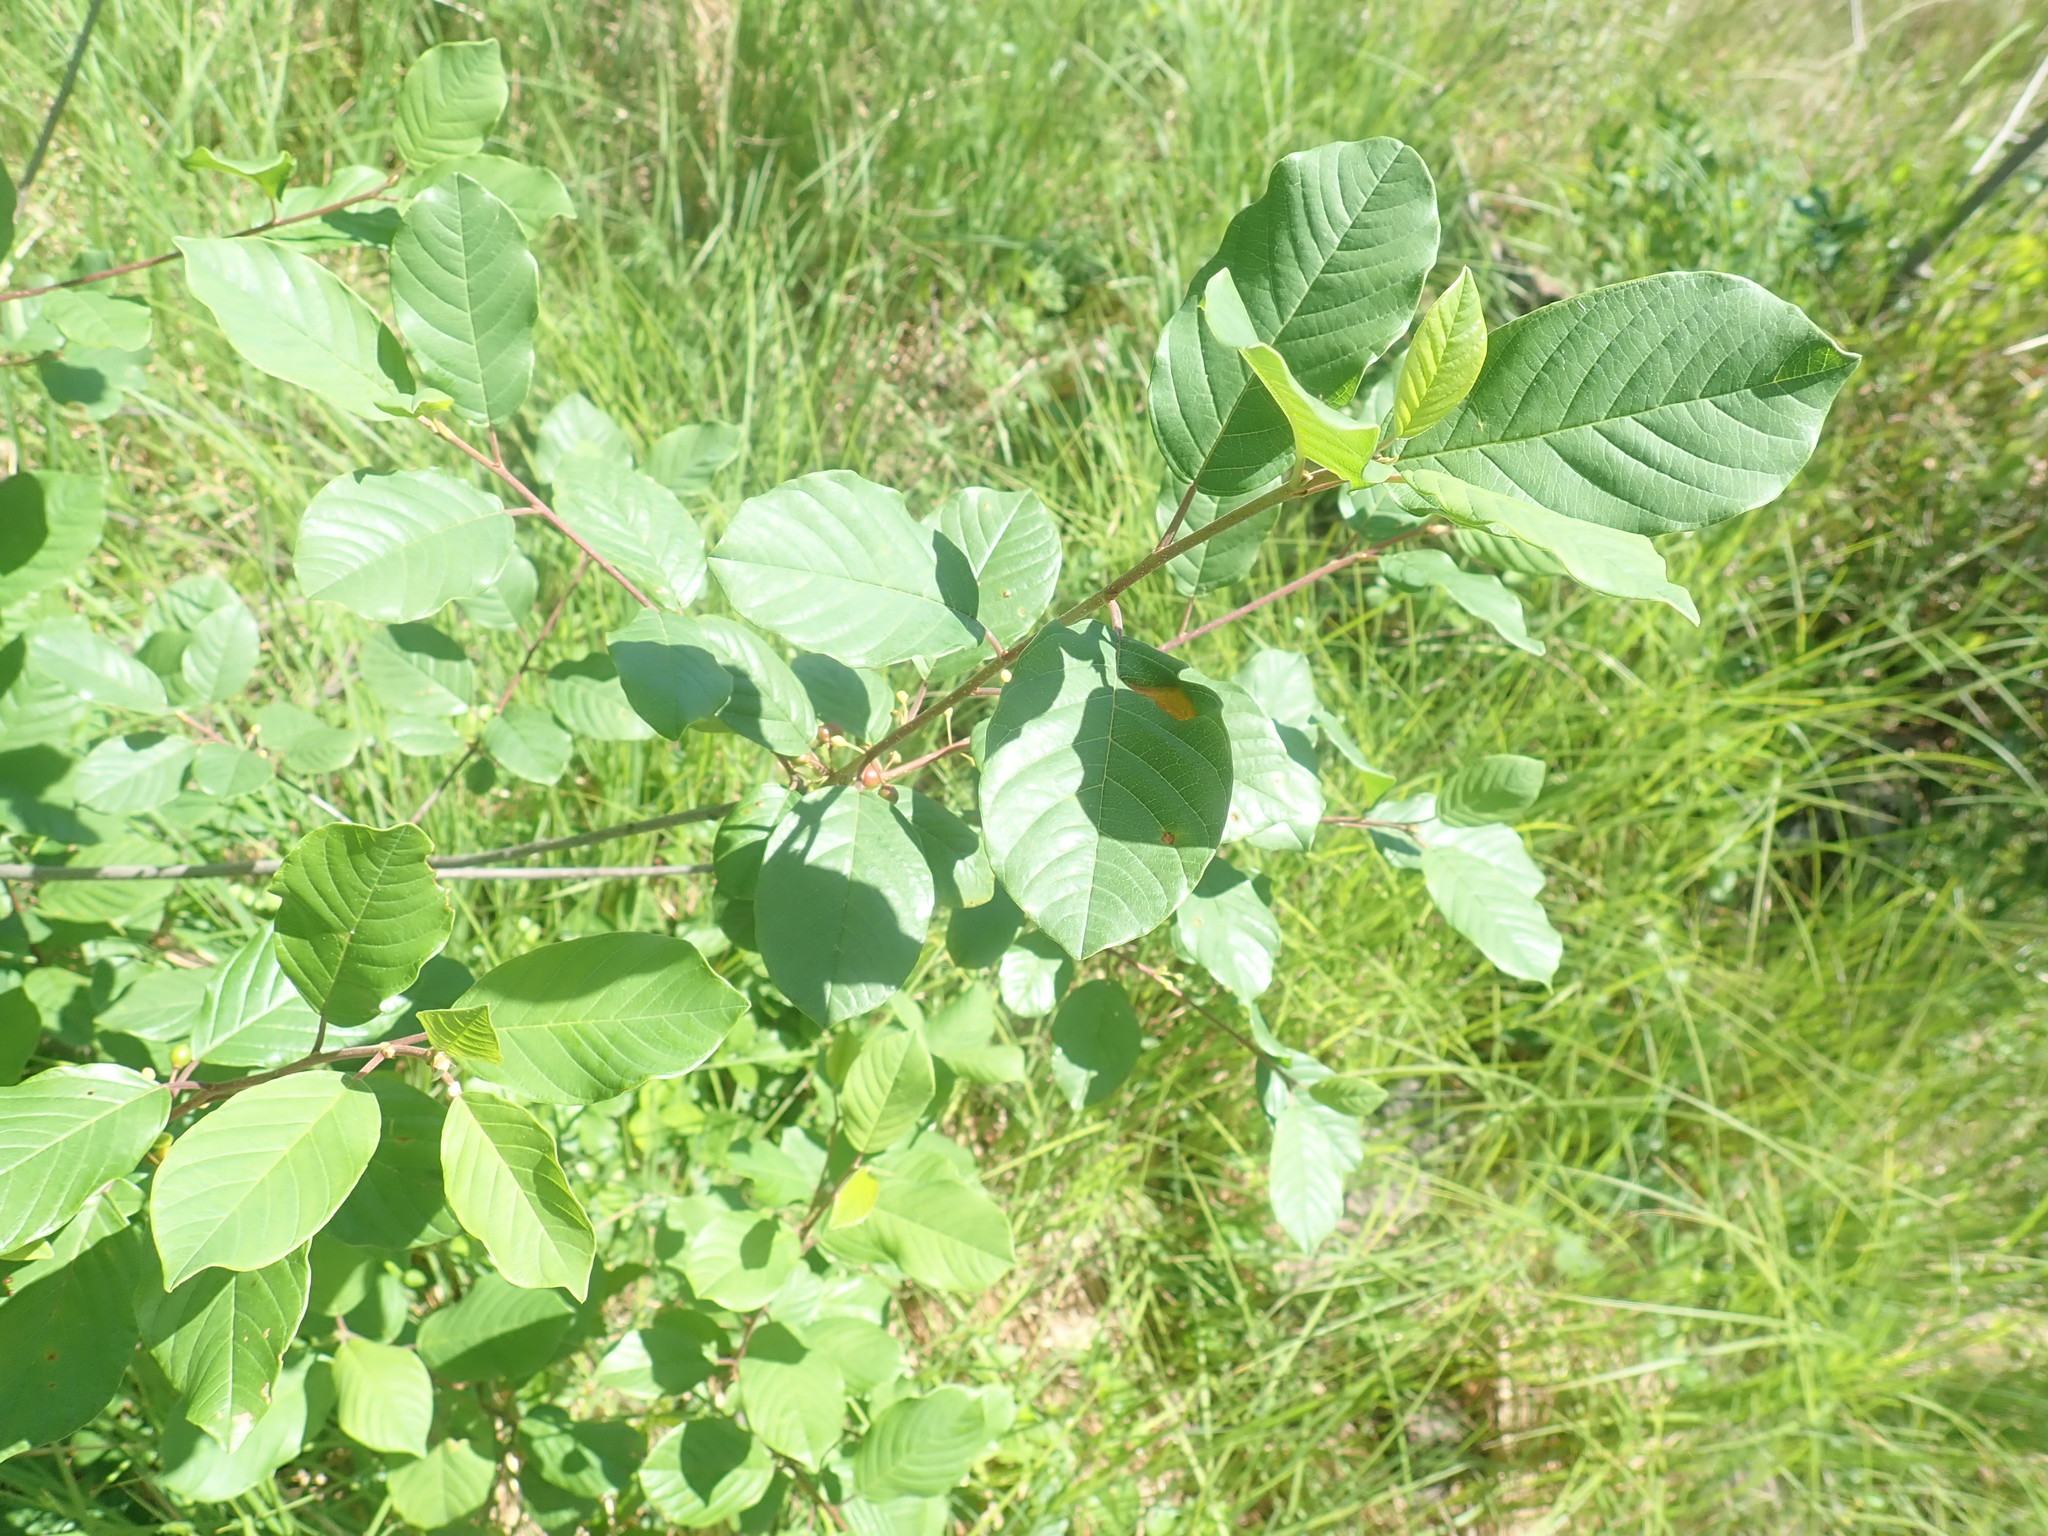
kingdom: Plantae
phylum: Tracheophyta
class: Magnoliopsida
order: Rosales
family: Rhamnaceae
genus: Frangula
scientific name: Frangula alnus
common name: Alder buckthorn
